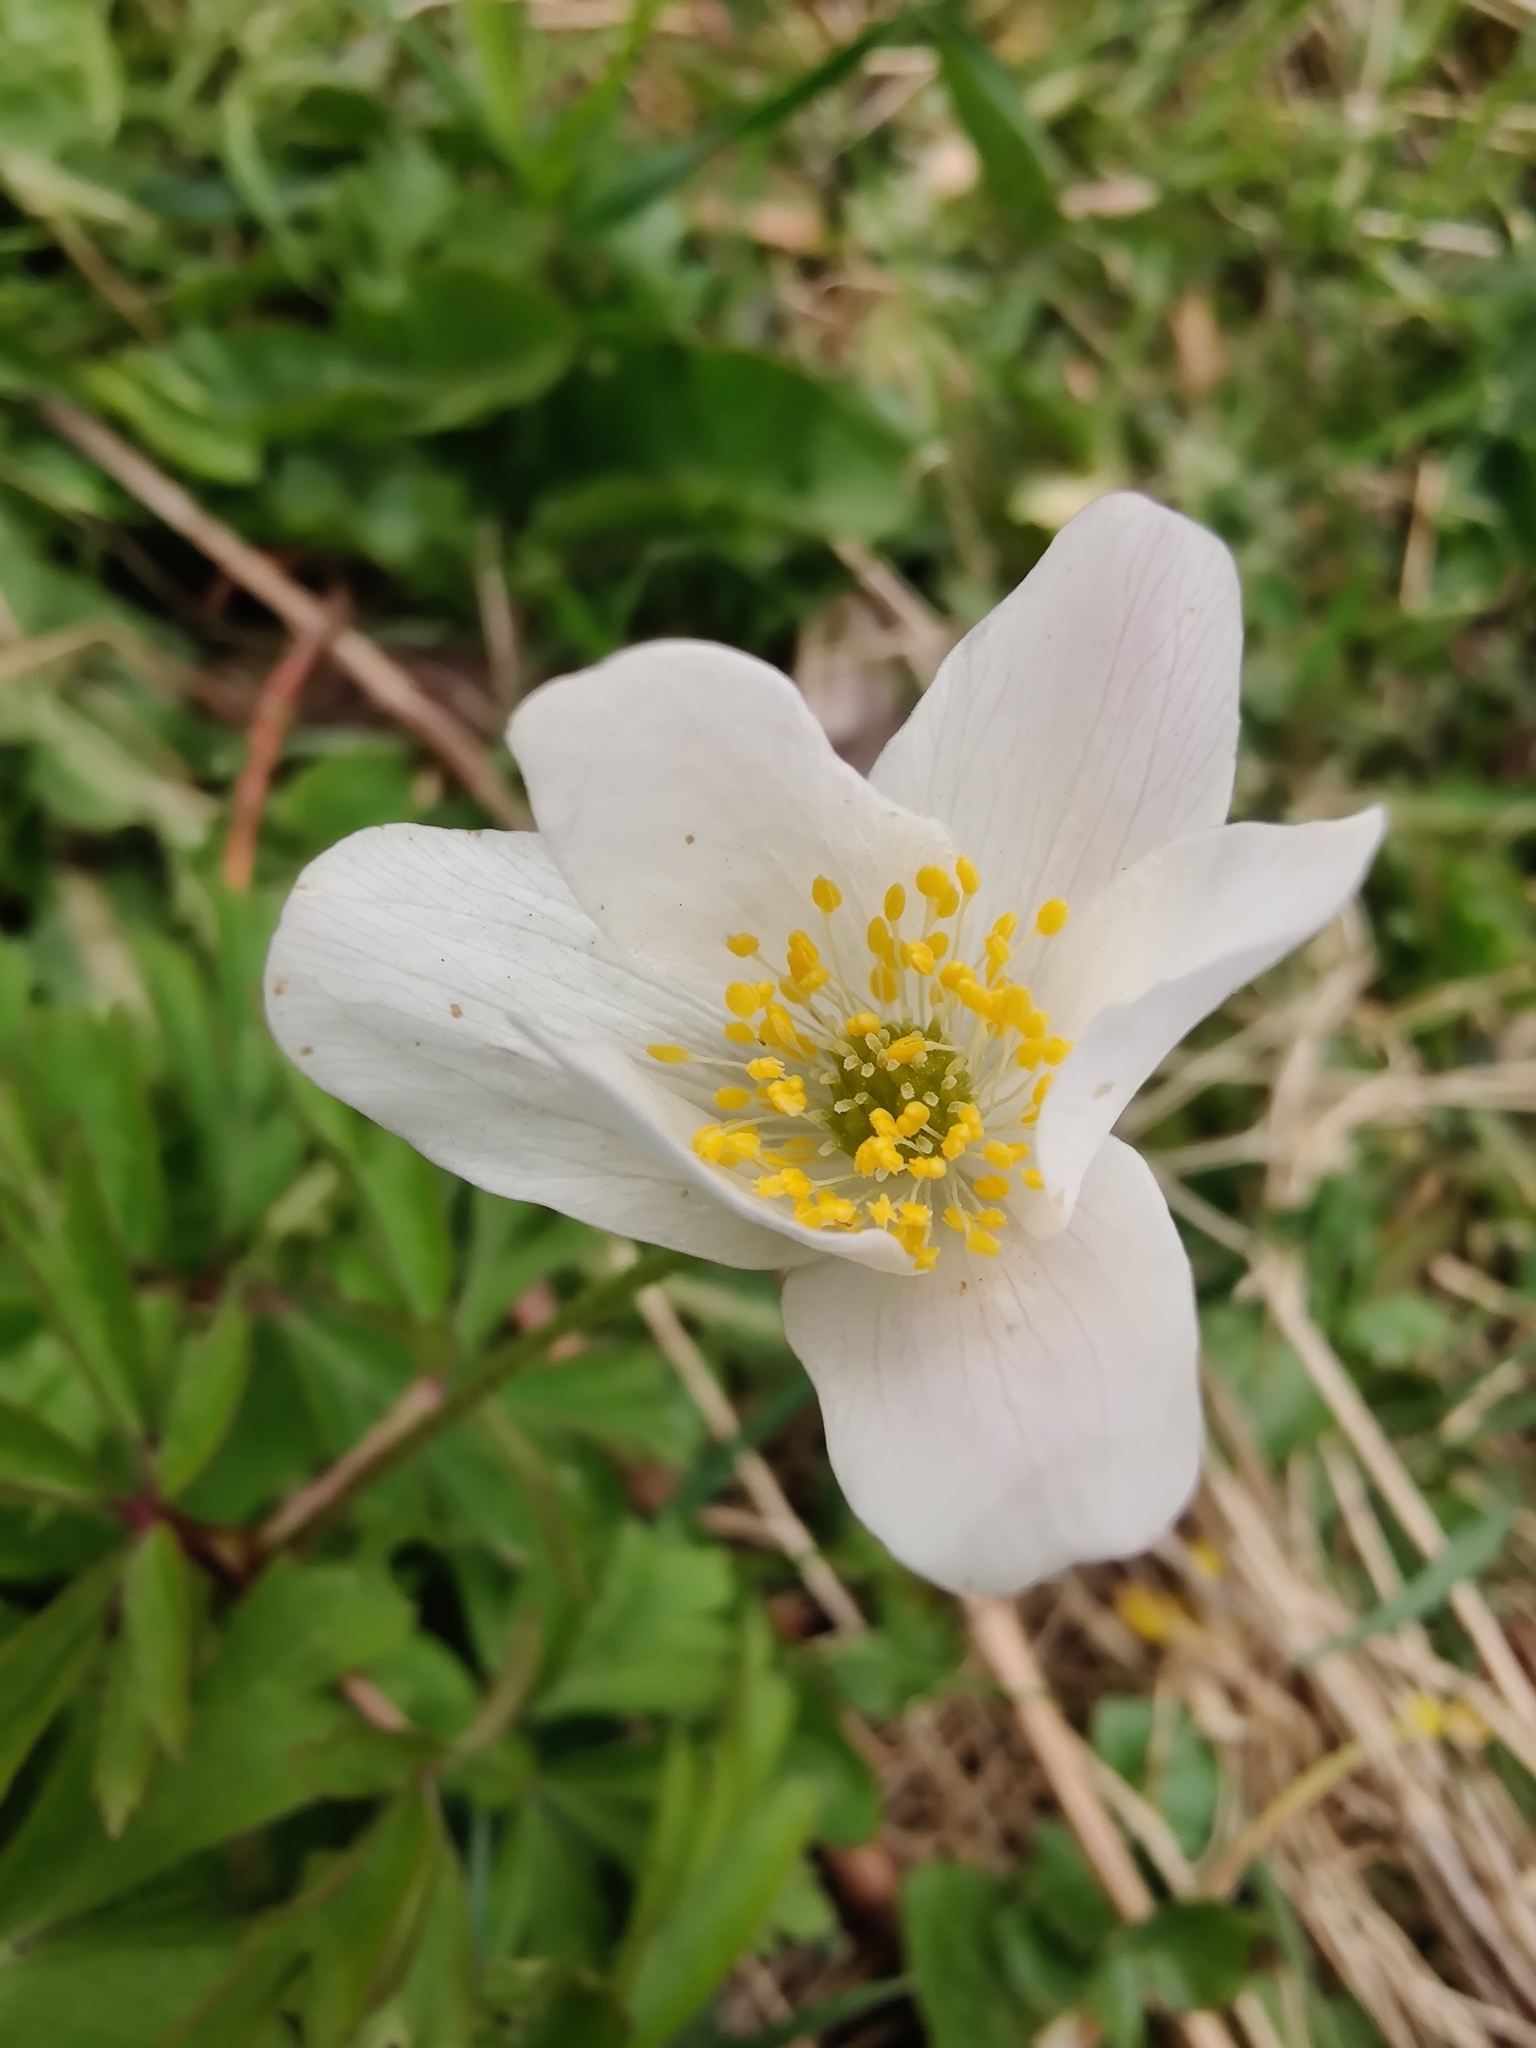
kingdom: Plantae
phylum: Tracheophyta
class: Magnoliopsida
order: Ranunculales
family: Ranunculaceae
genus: Anemone
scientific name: Anemone nemorosa
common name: Wood anemone
